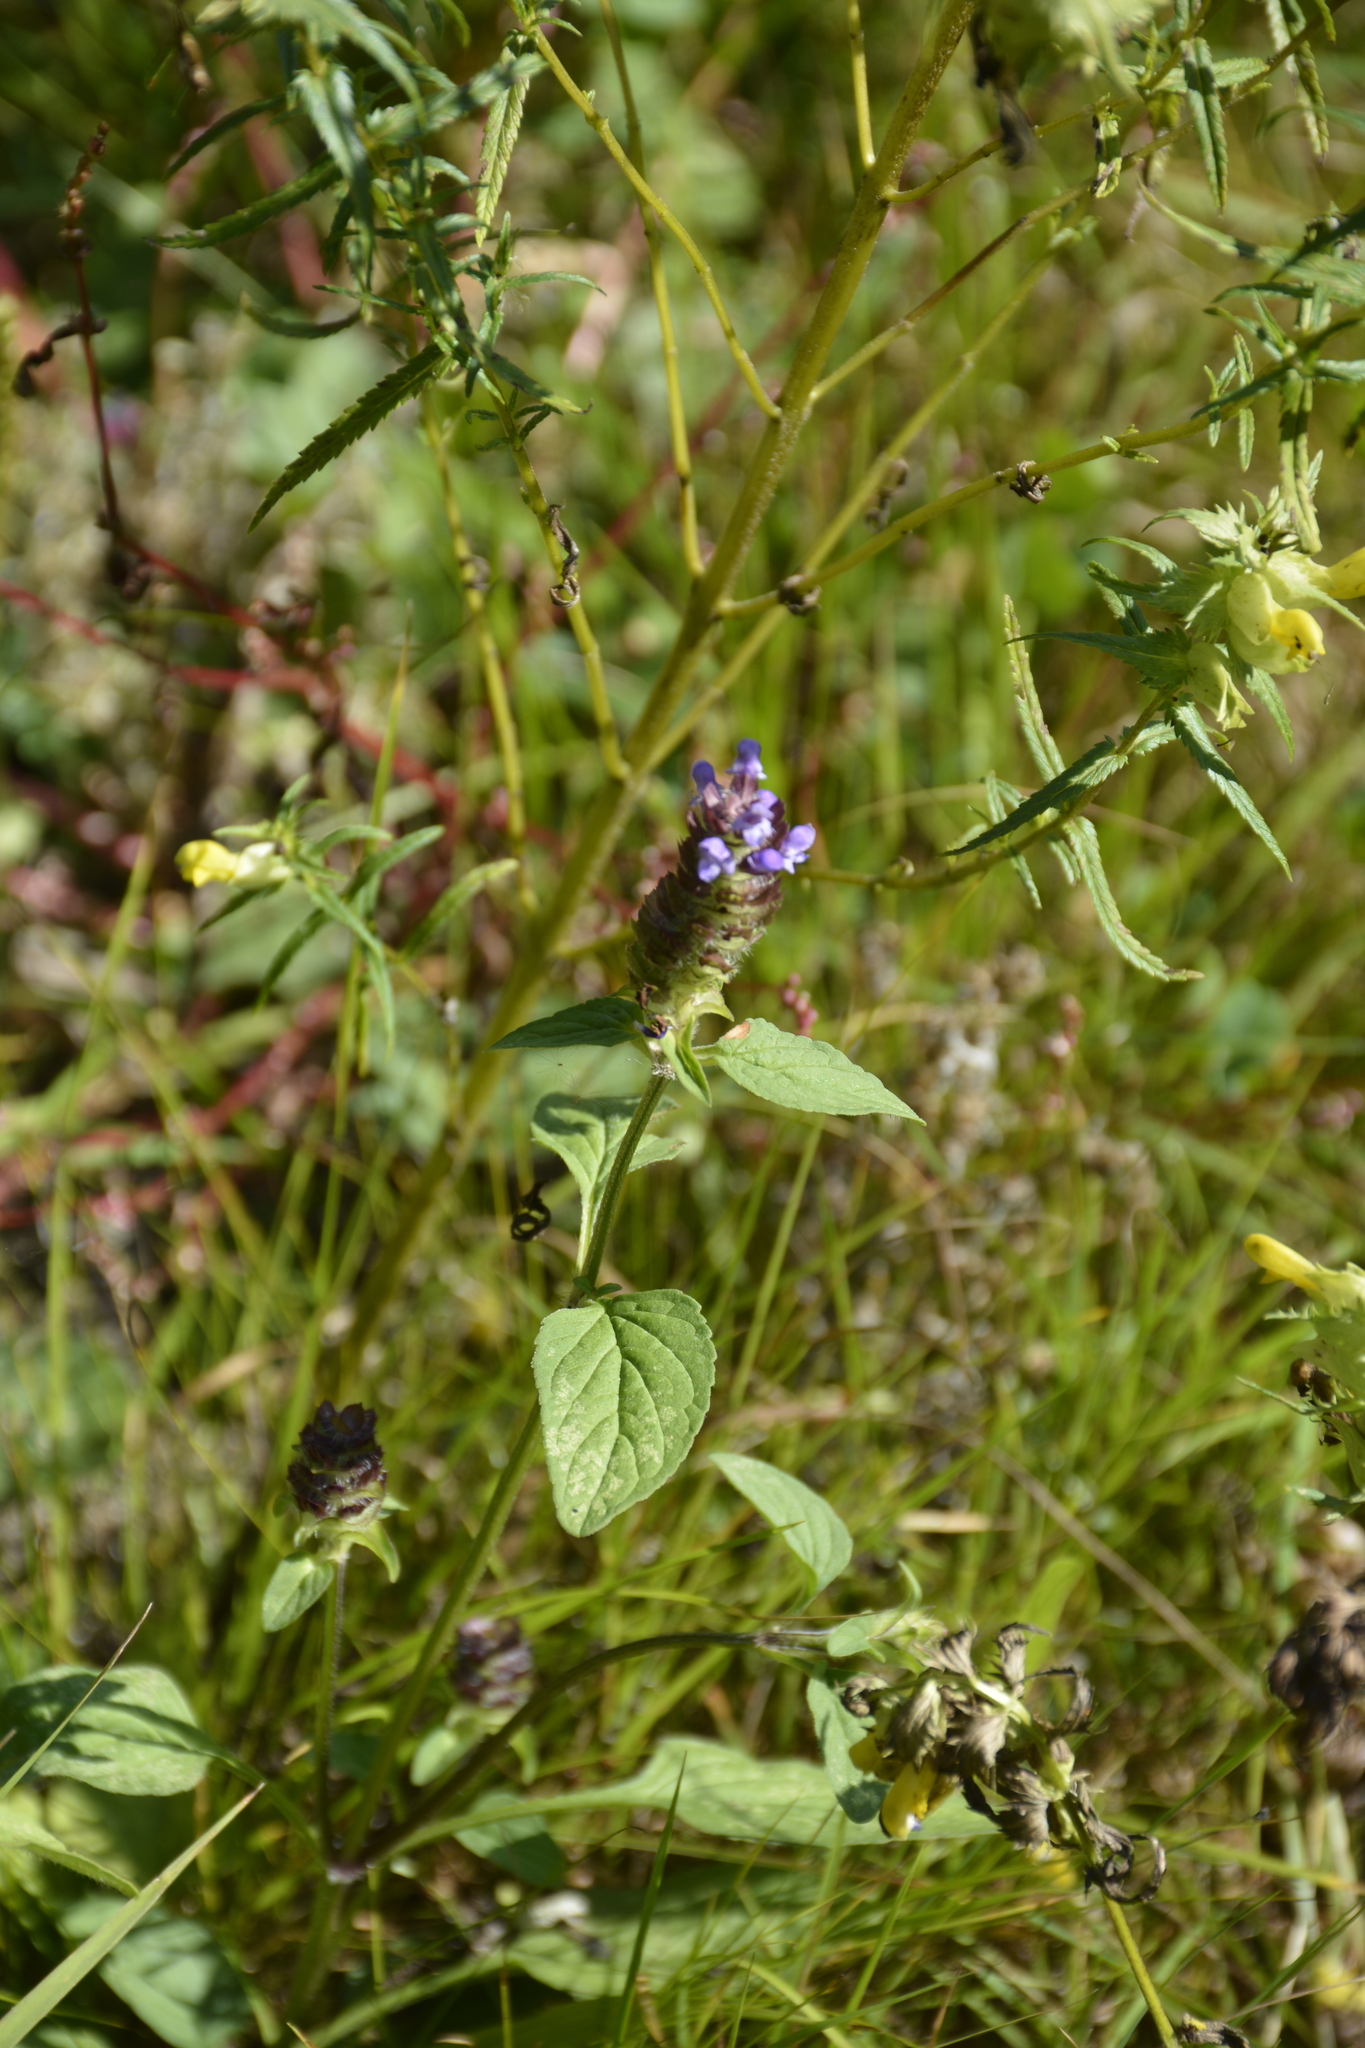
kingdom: Plantae
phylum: Tracheophyta
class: Magnoliopsida
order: Lamiales
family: Lamiaceae
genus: Prunella
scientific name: Prunella vulgaris
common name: Heal-all
